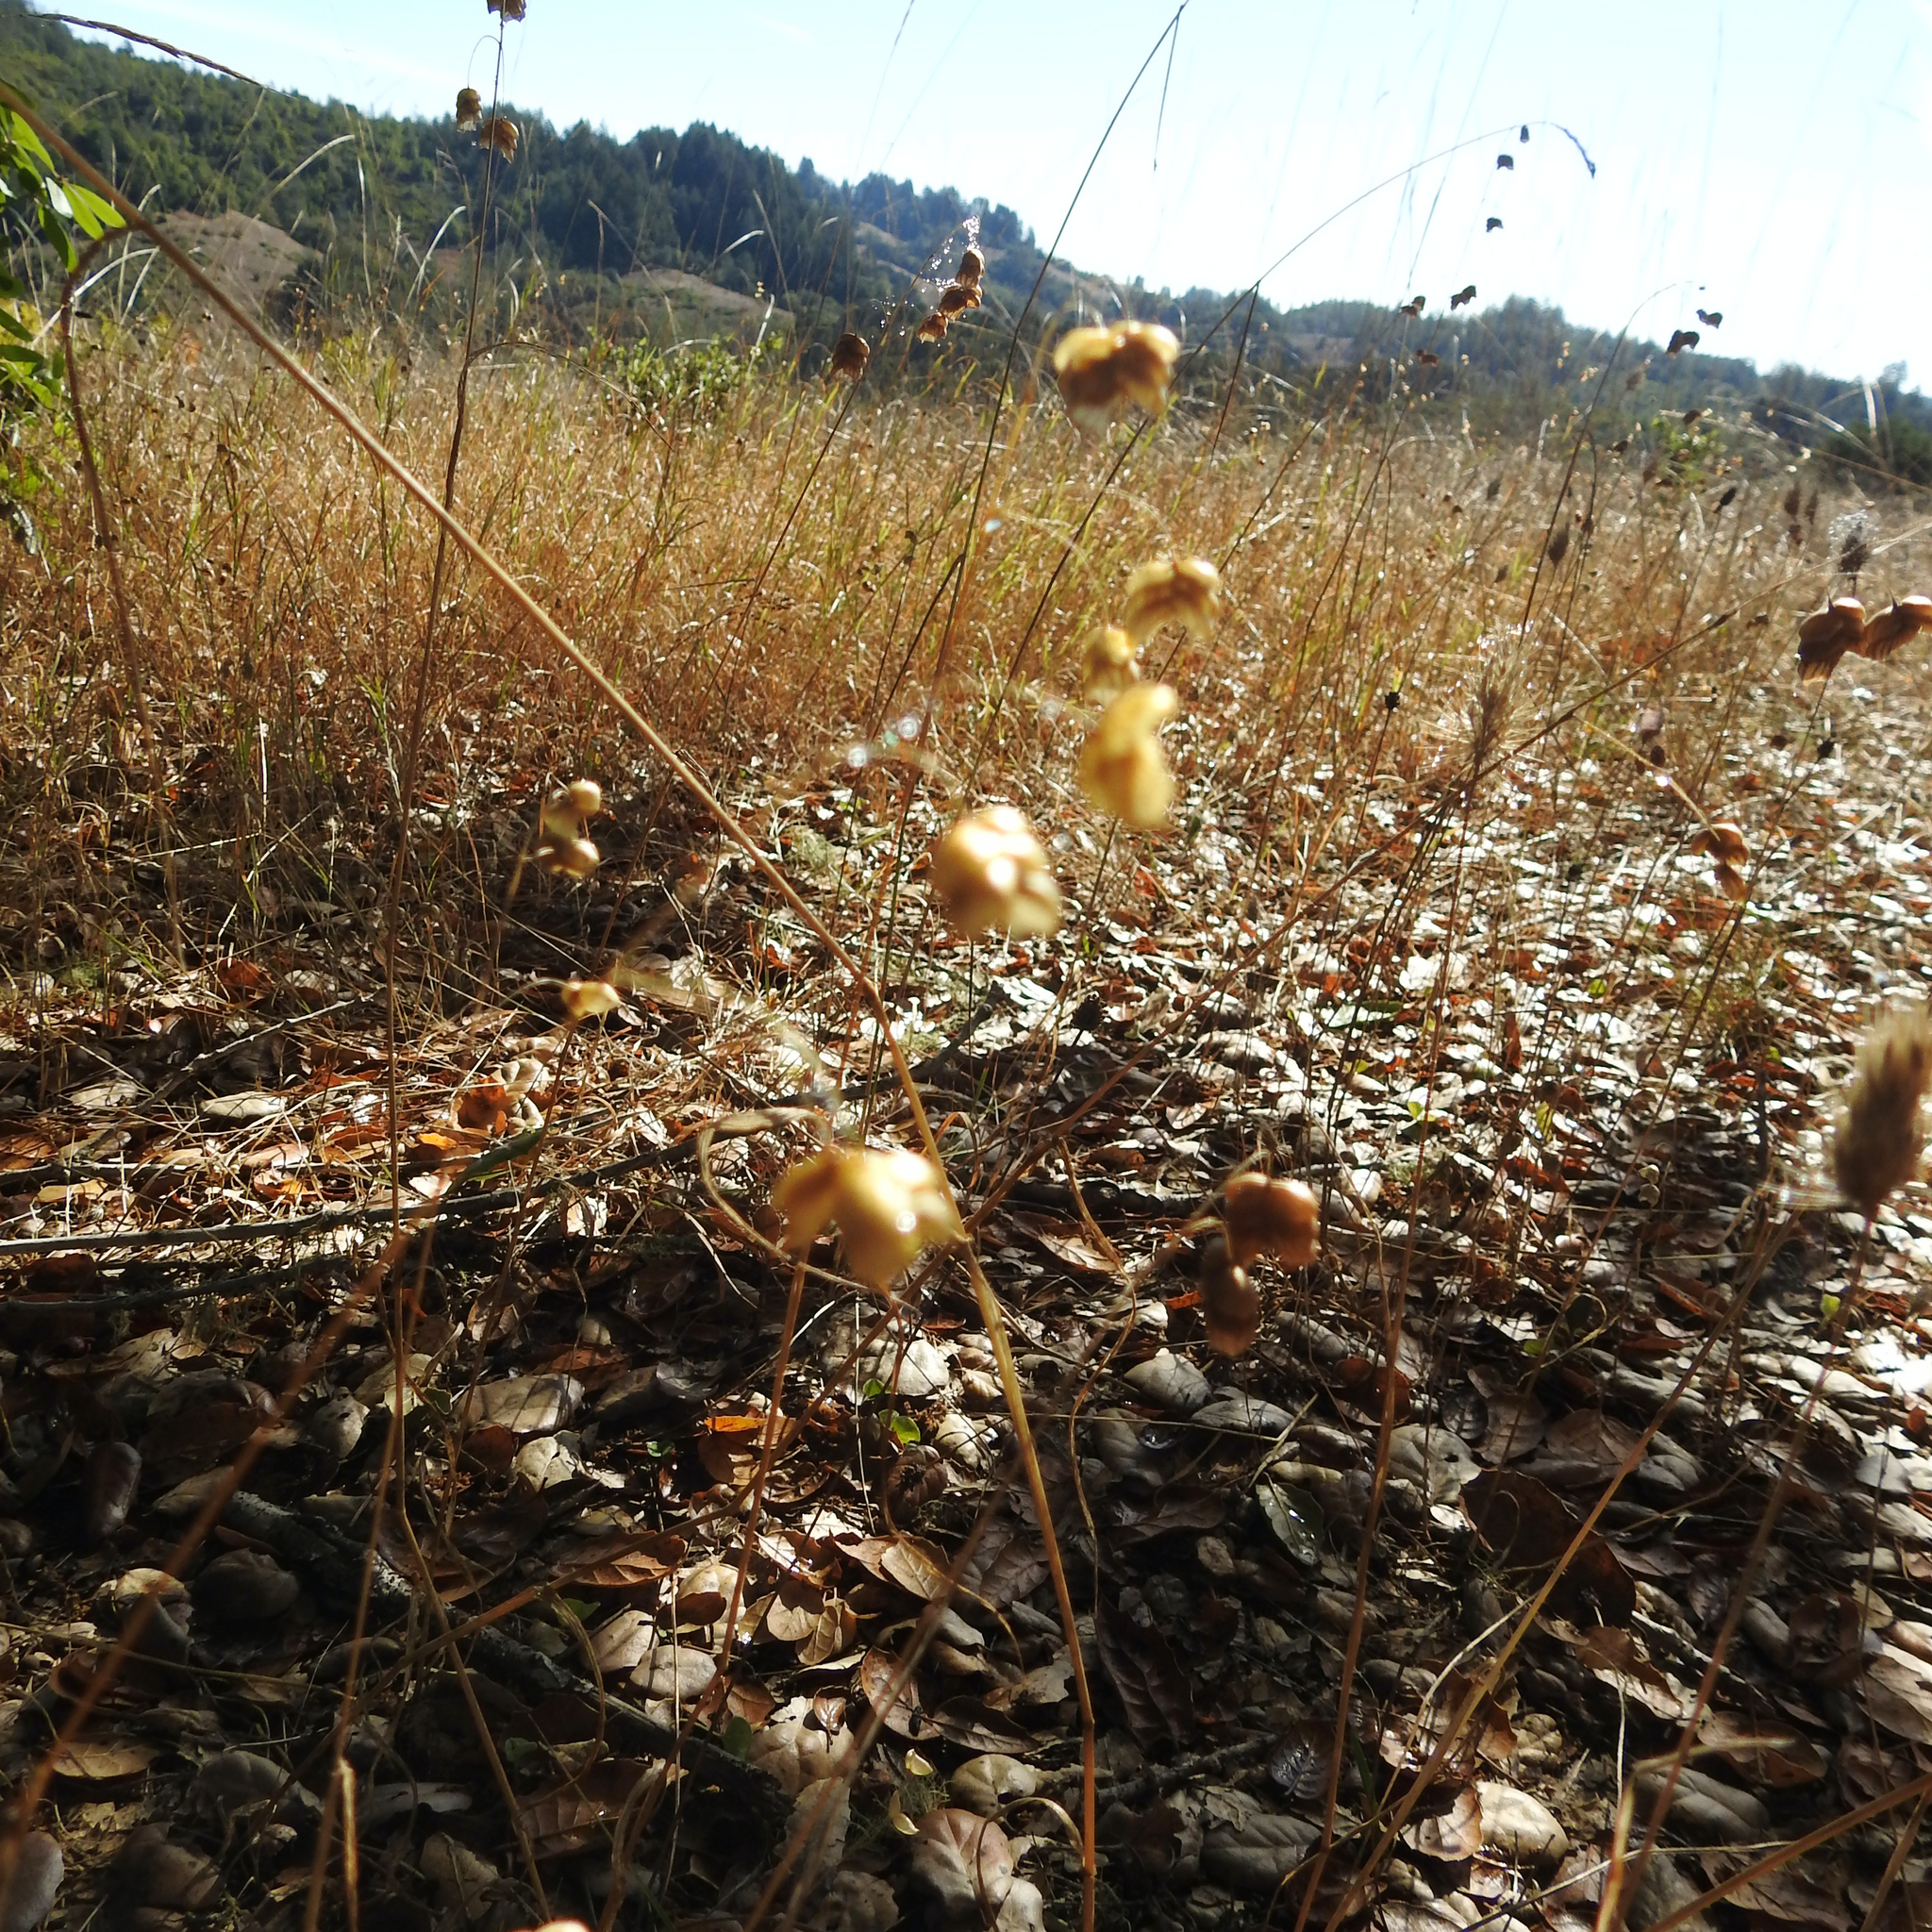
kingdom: Plantae
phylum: Tracheophyta
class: Liliopsida
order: Poales
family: Poaceae
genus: Briza
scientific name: Briza maxima
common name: Big quakinggrass
